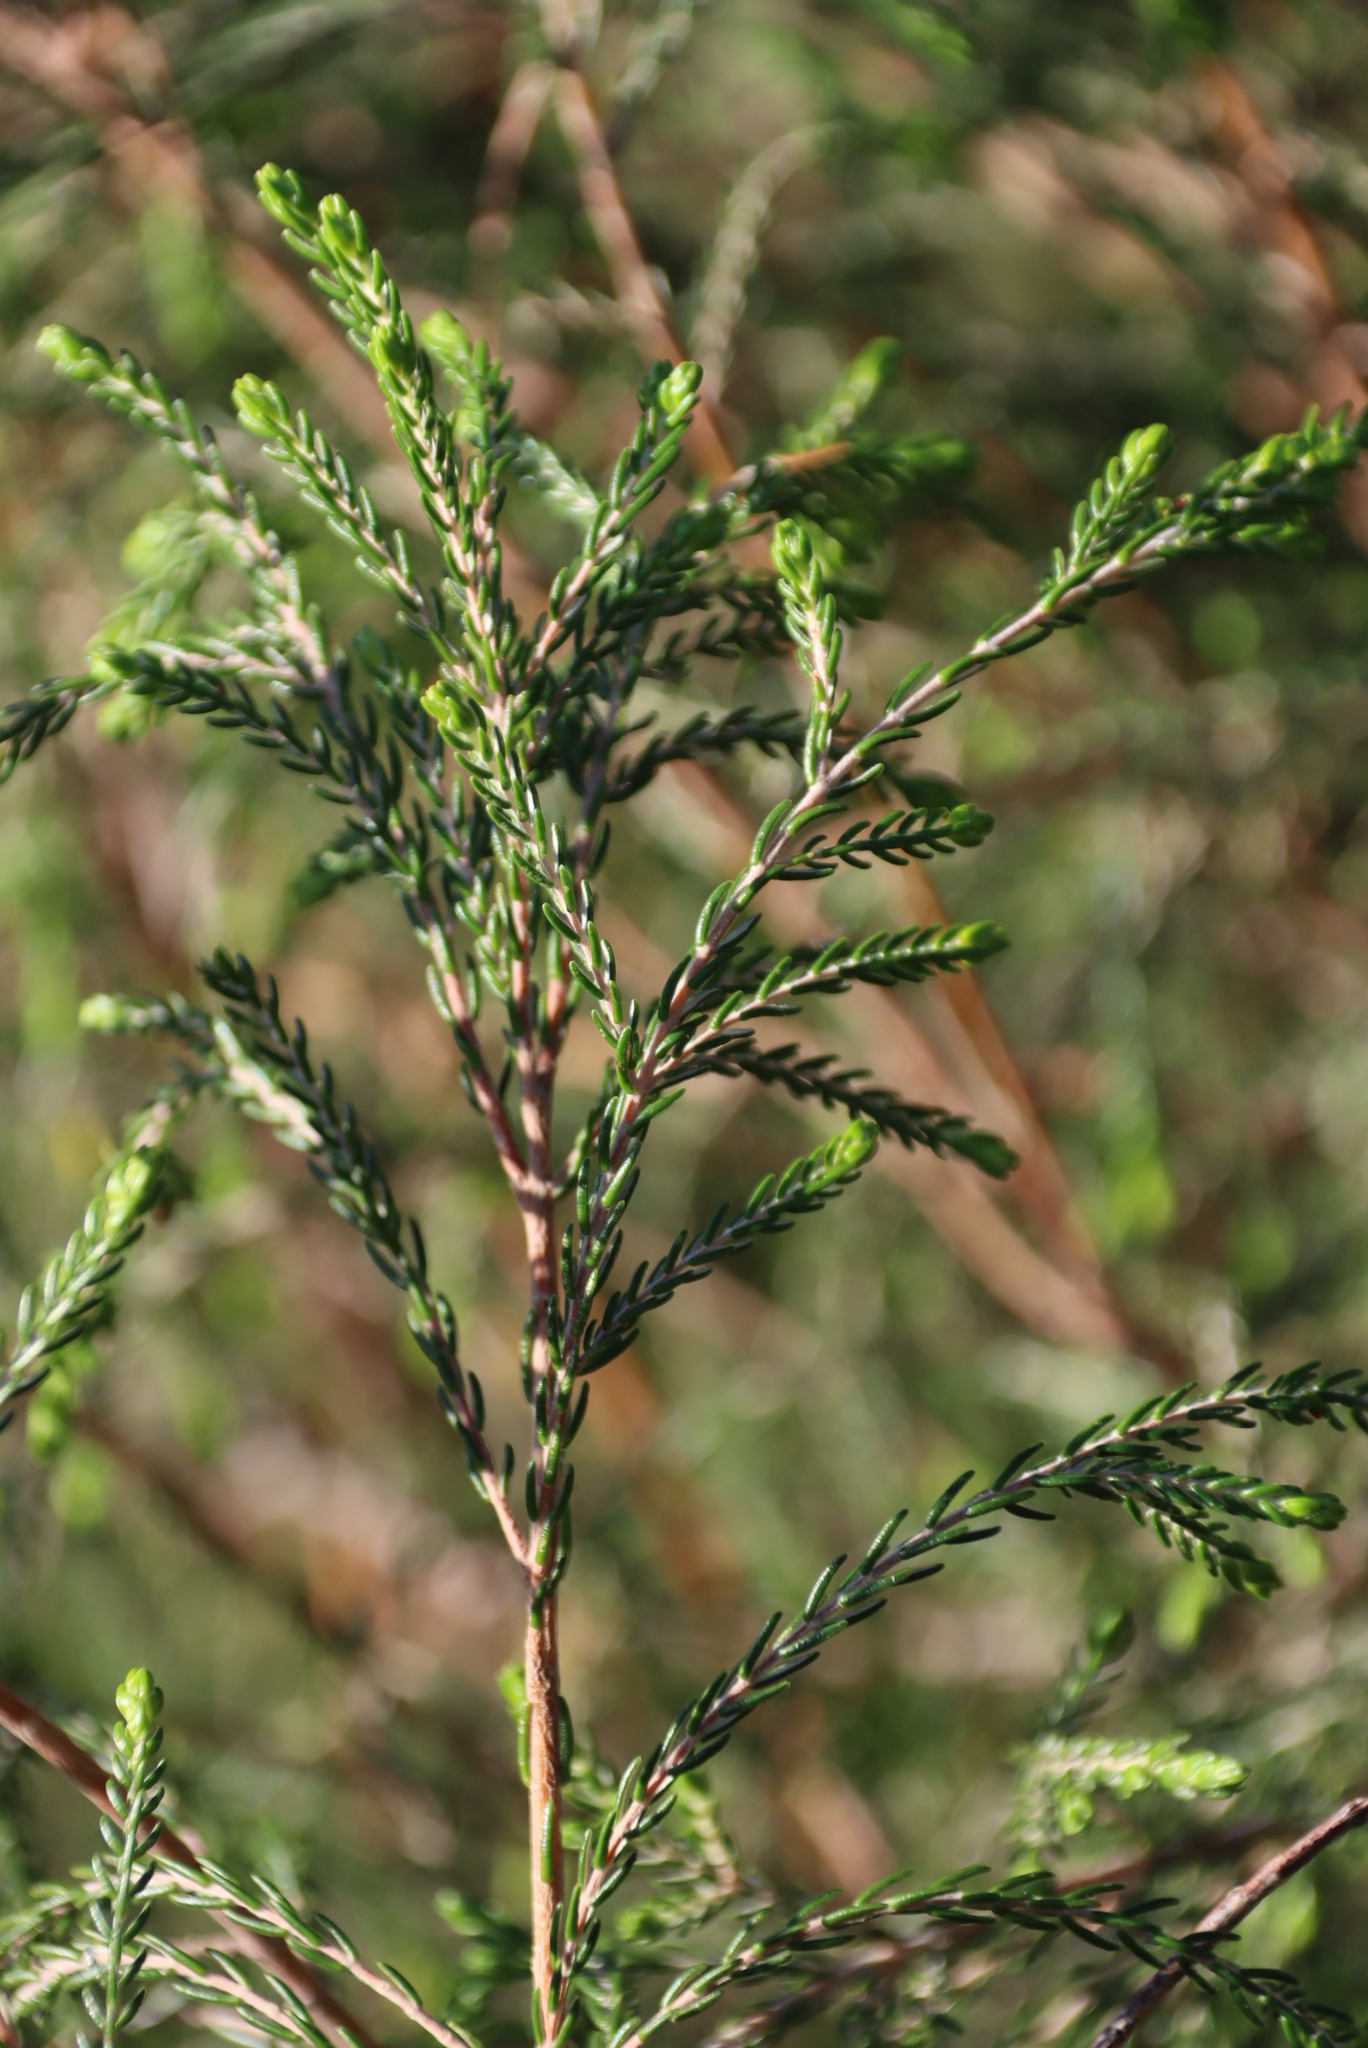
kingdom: Plantae
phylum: Tracheophyta
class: Magnoliopsida
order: Malvales
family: Thymelaeaceae
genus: Passerina
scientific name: Passerina falcifolia
